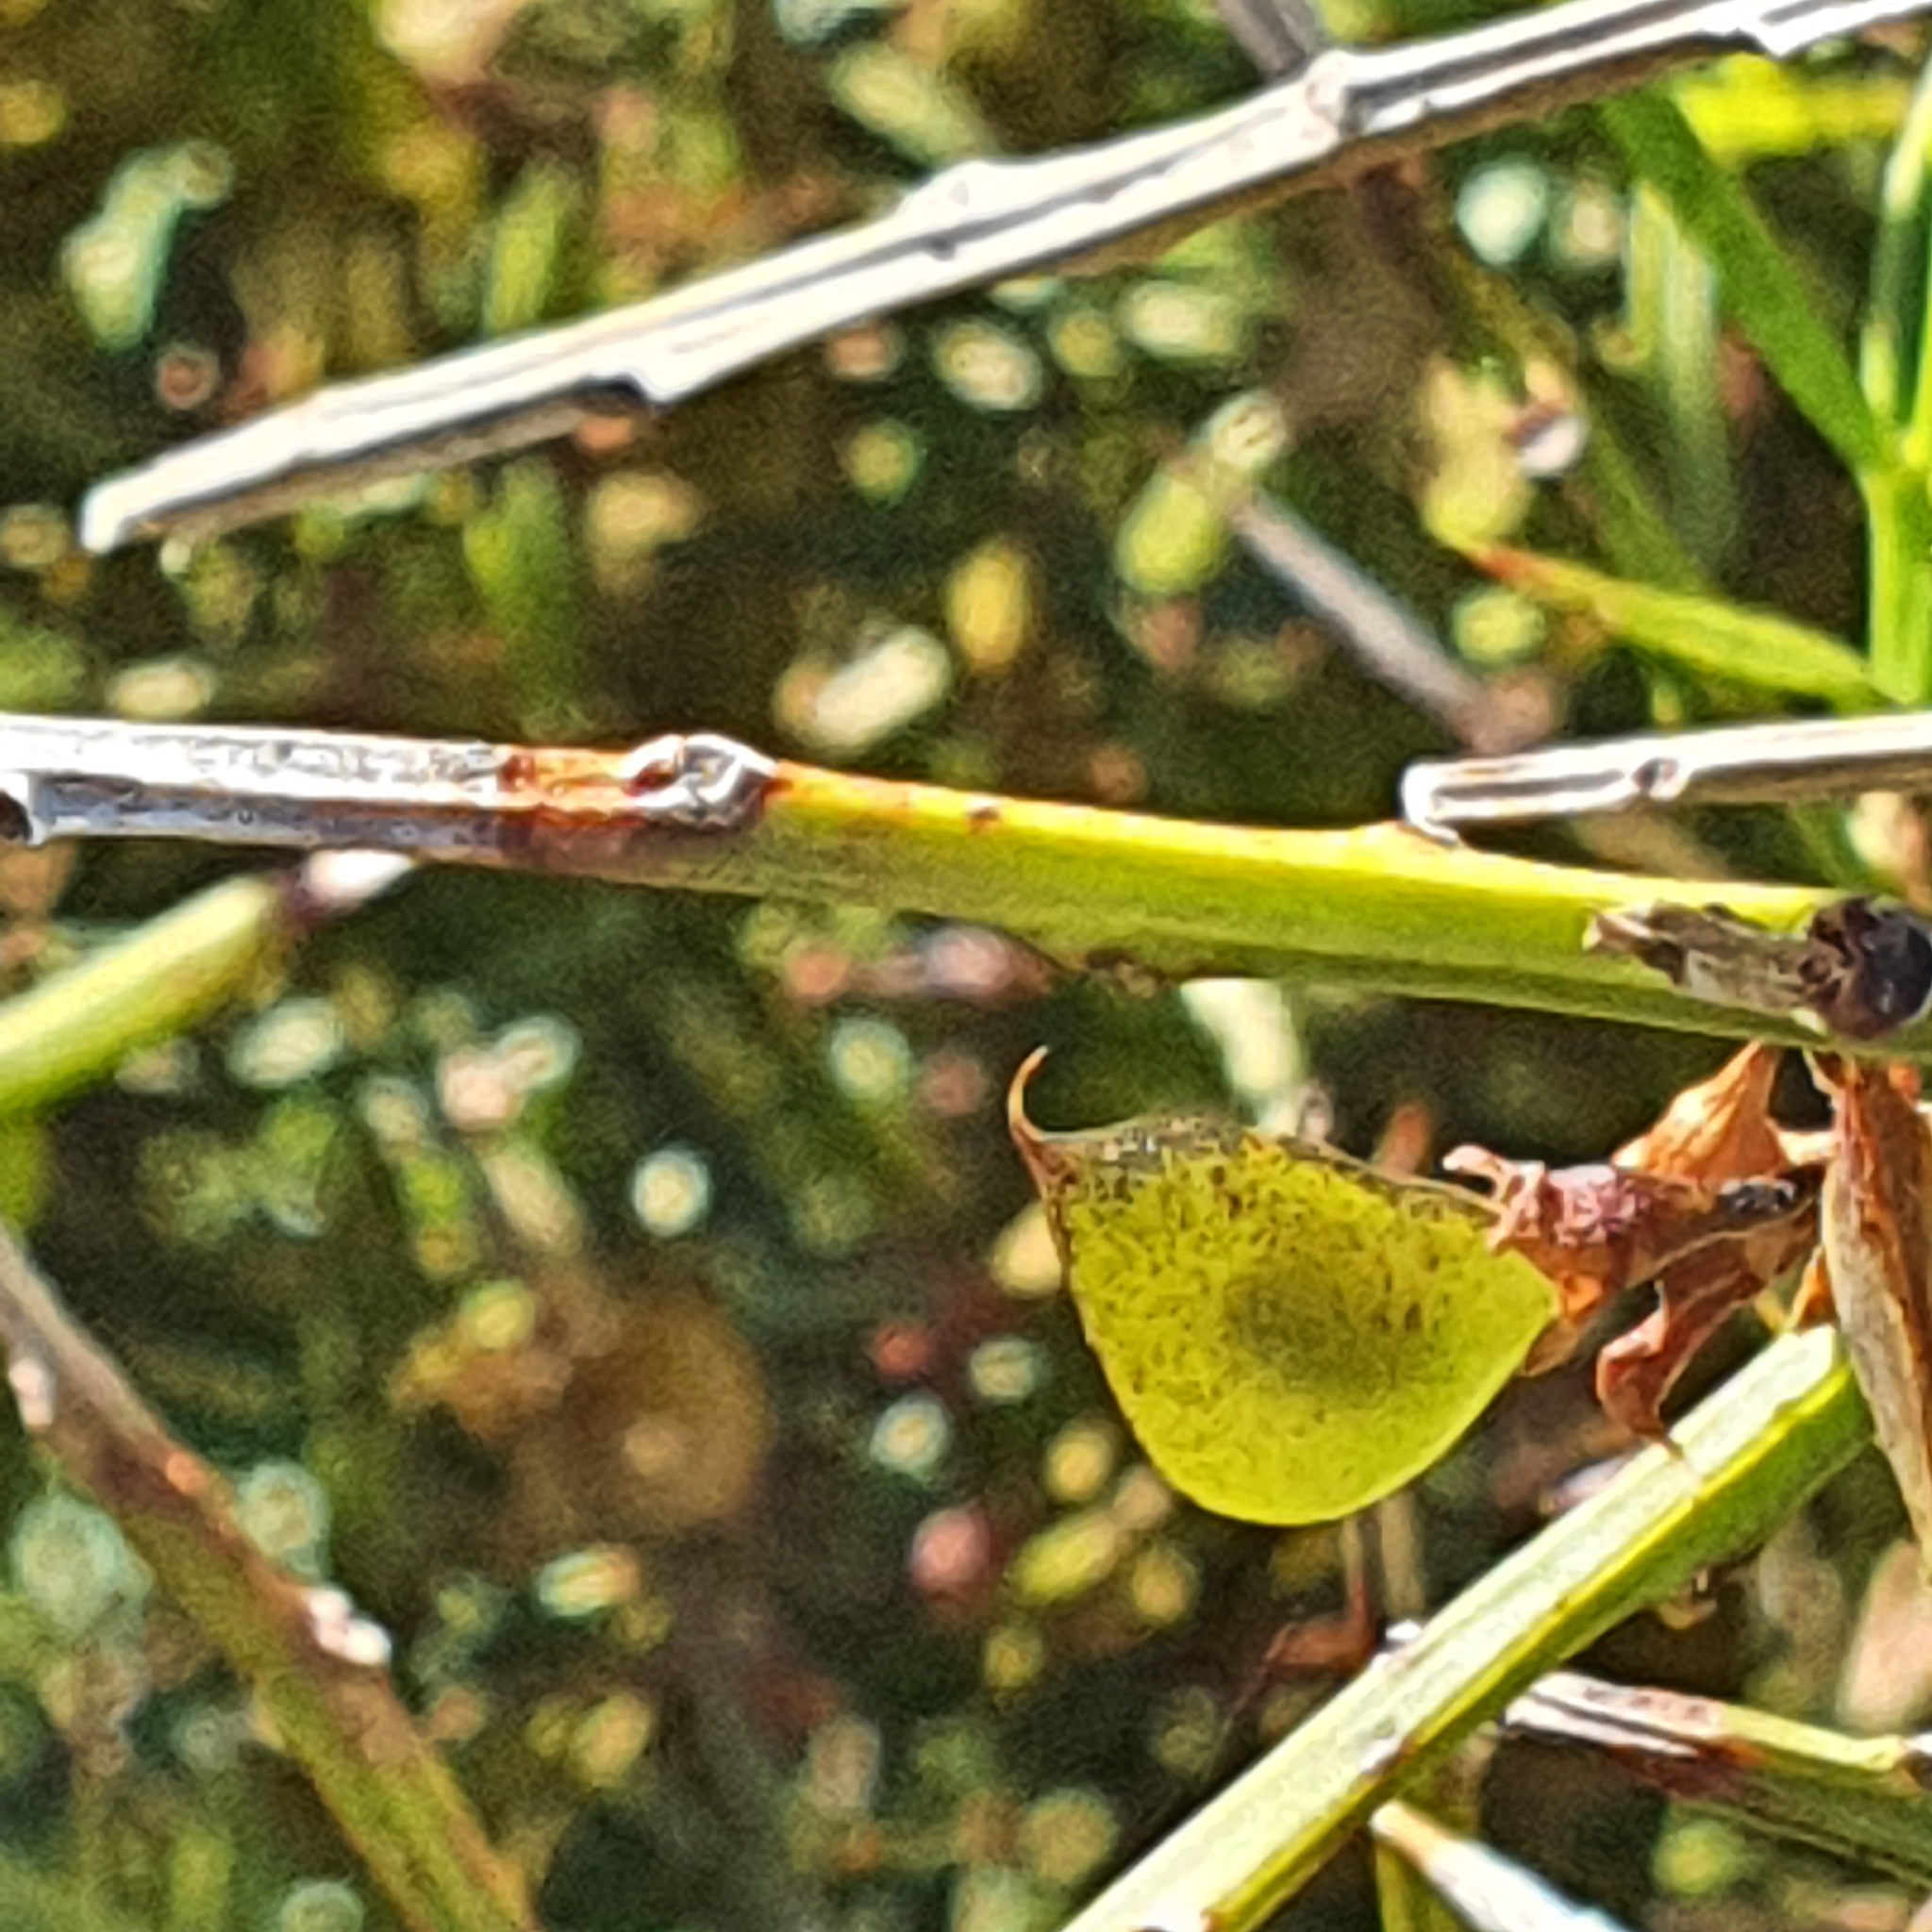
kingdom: Plantae
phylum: Tracheophyta
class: Magnoliopsida
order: Fabales
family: Fabaceae
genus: Daviesia
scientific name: Daviesia ulicifolia
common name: Gorse bitter-pea
